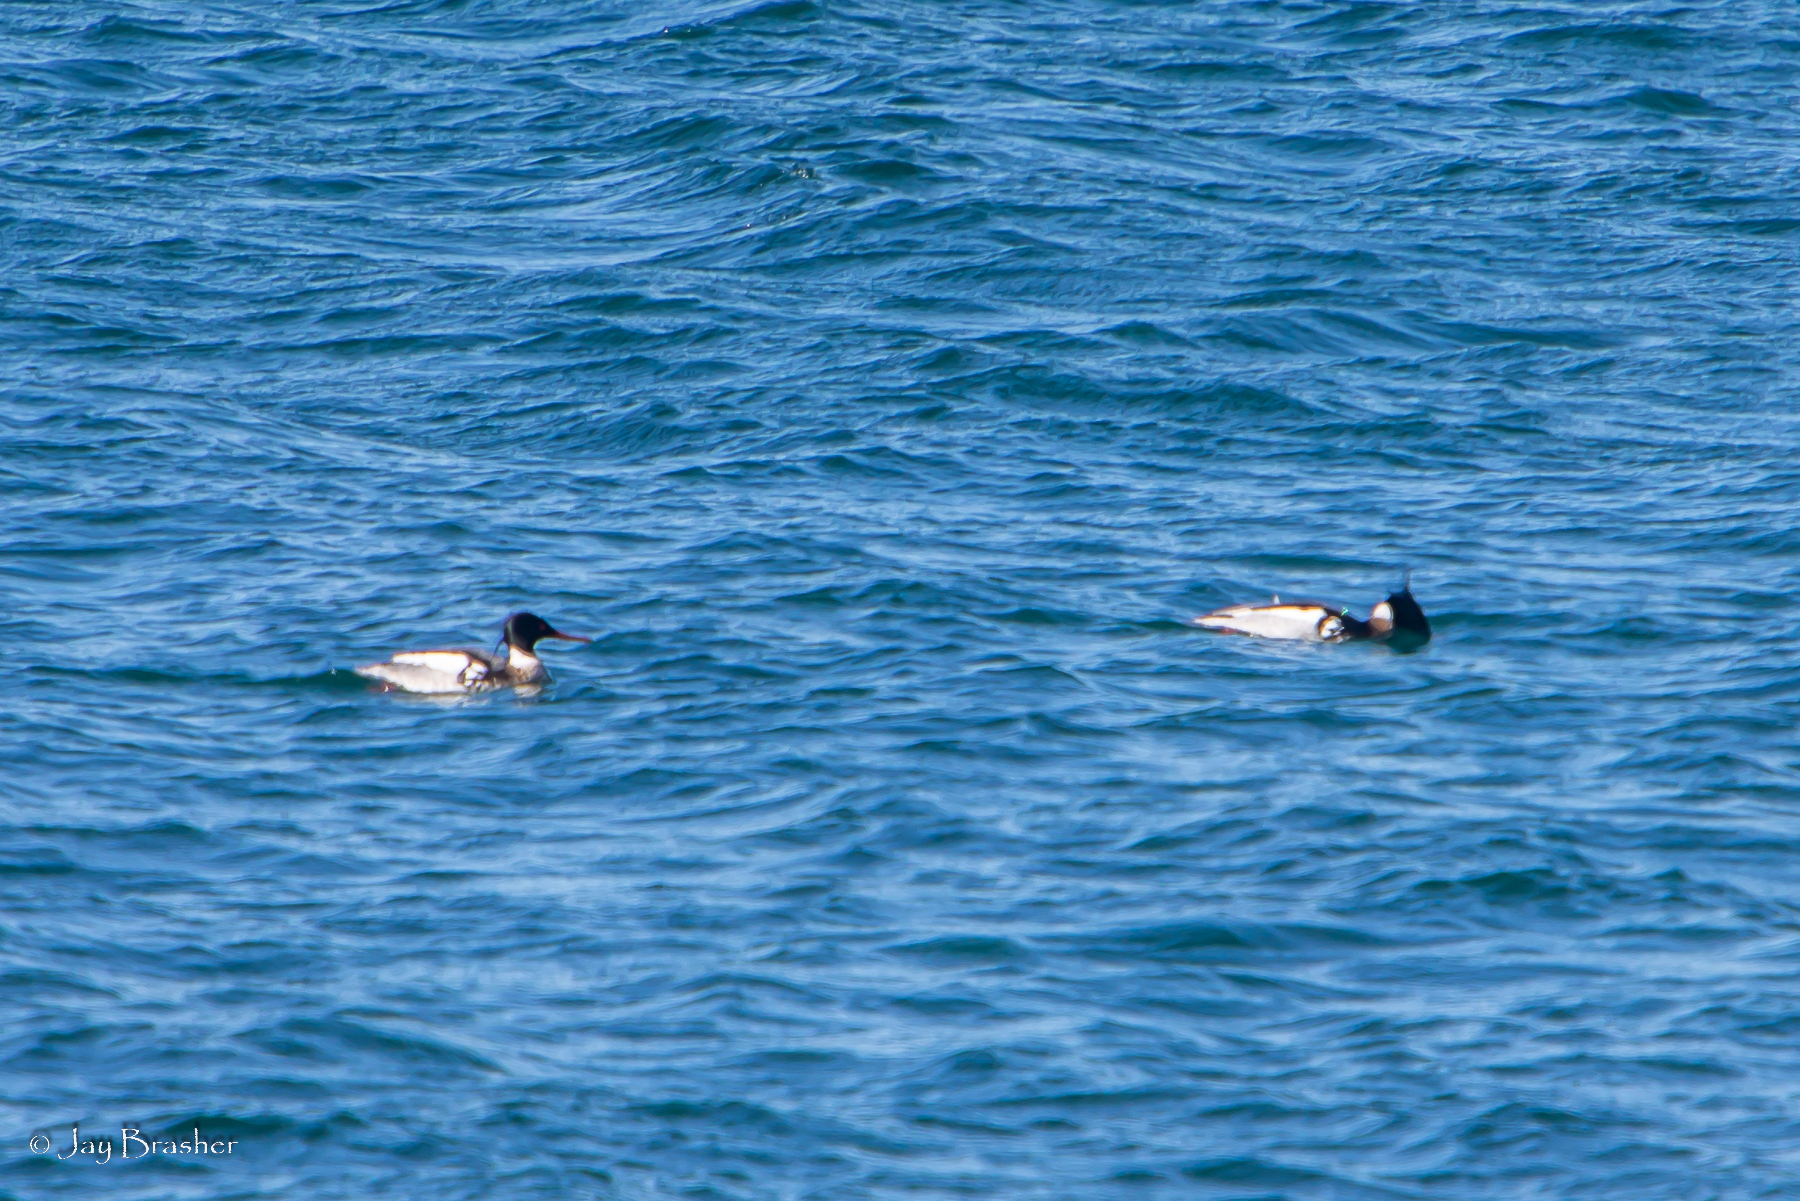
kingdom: Animalia
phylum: Chordata
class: Aves
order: Anseriformes
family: Anatidae
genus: Mergus
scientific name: Mergus serrator
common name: Red-breasted merganser
